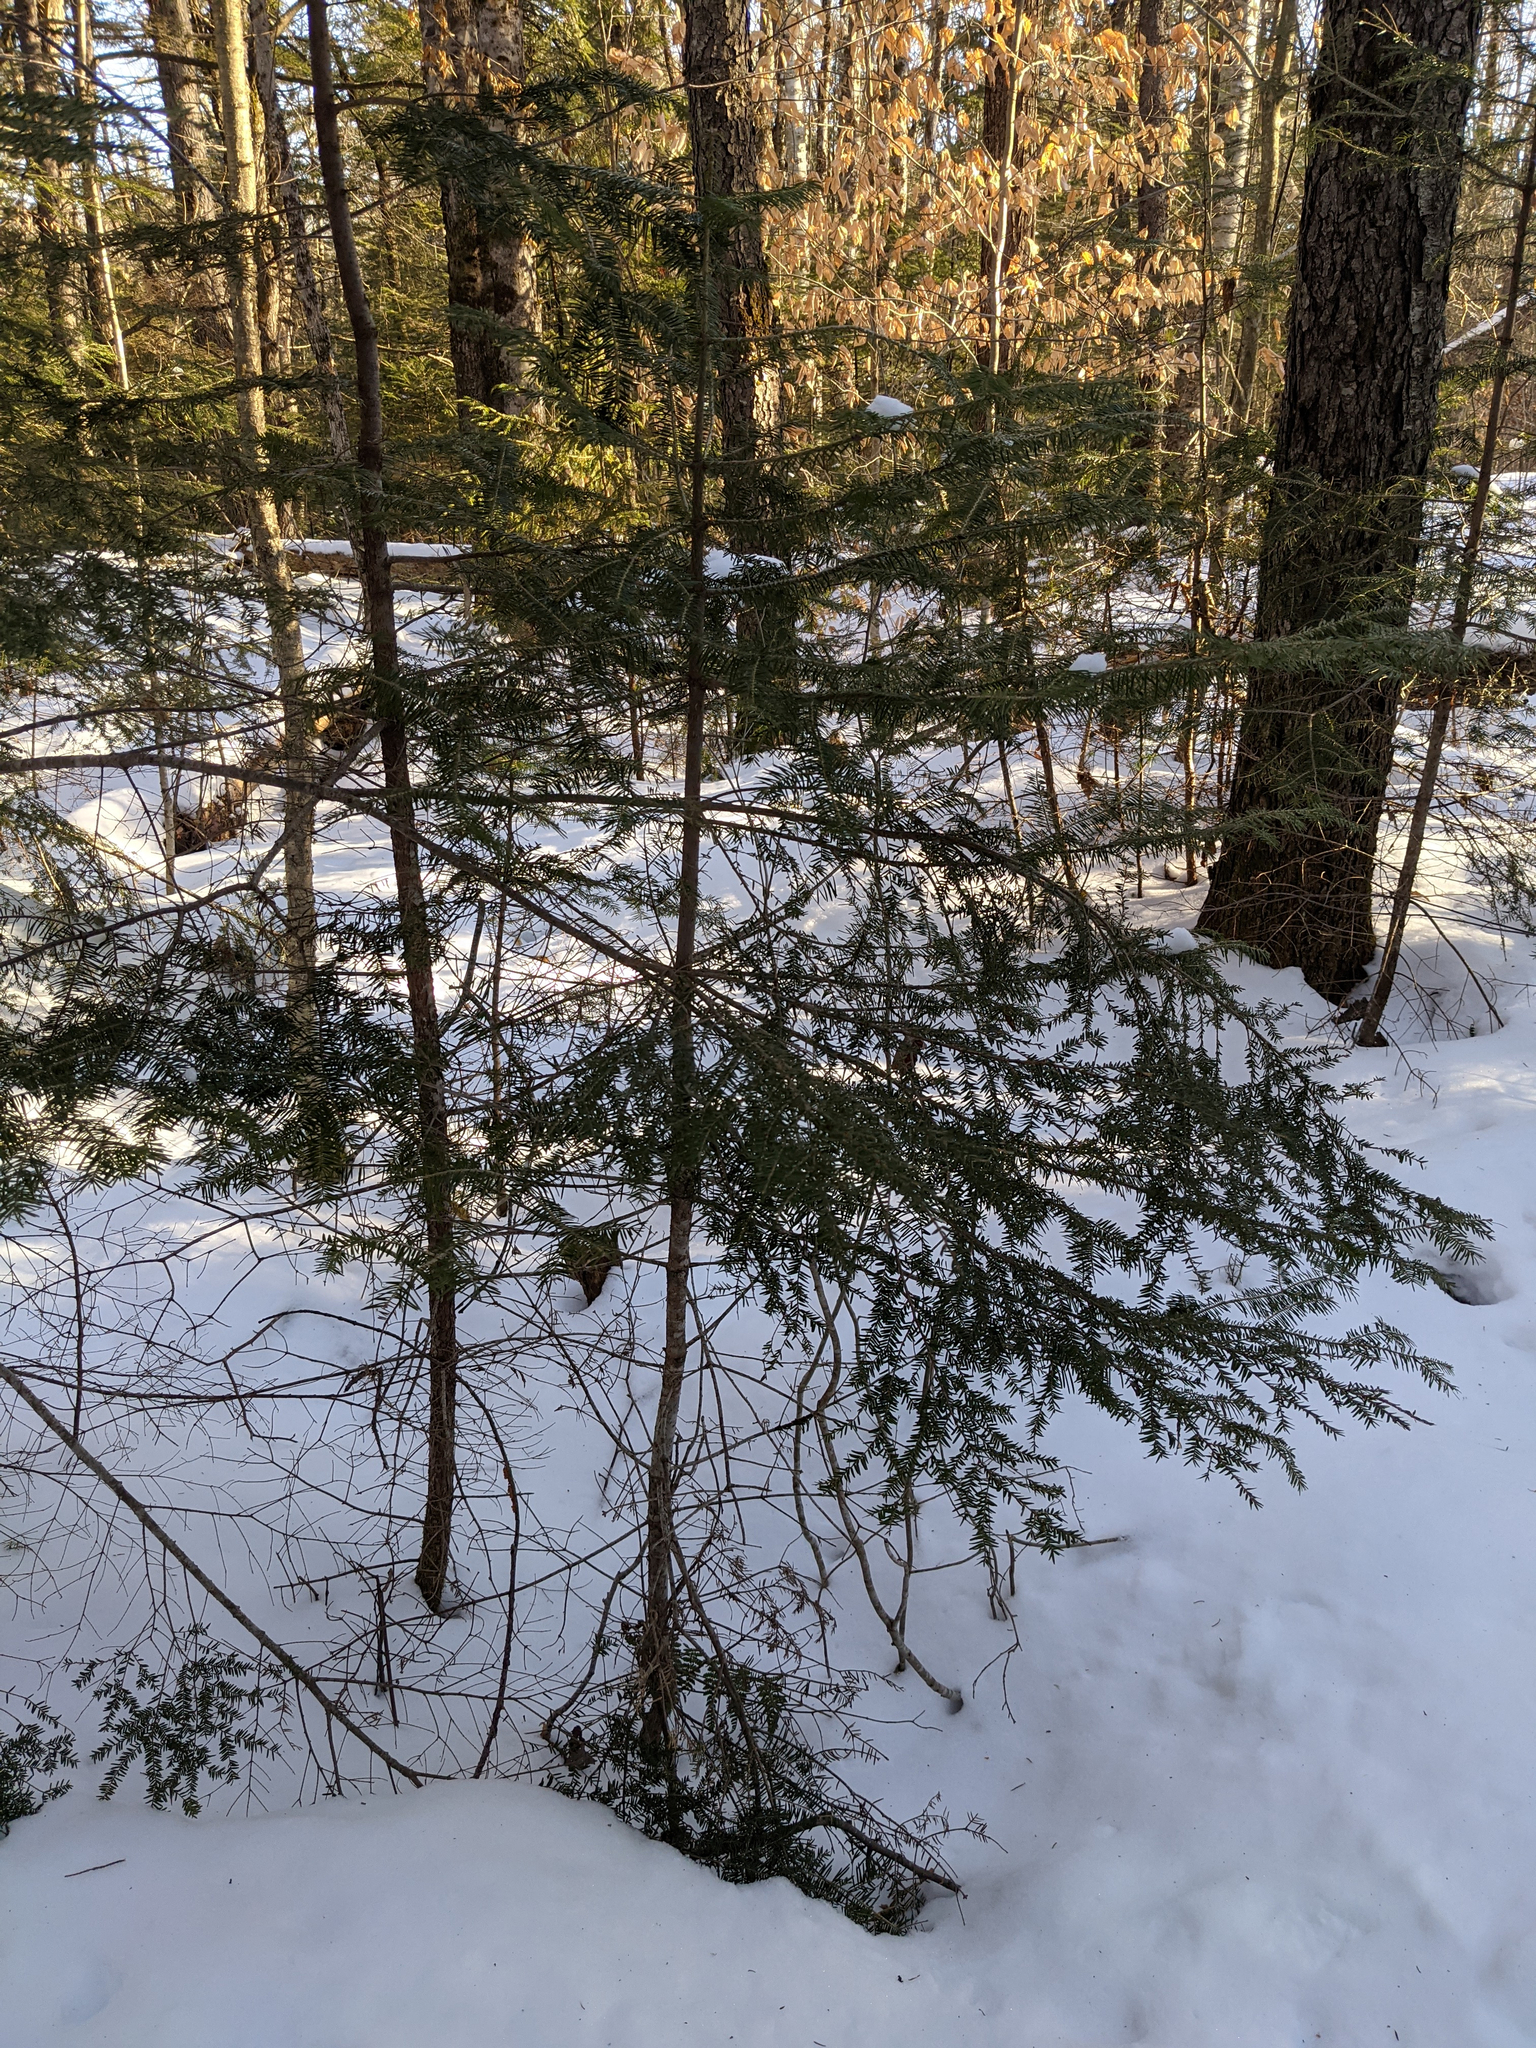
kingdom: Plantae
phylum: Tracheophyta
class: Pinopsida
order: Pinales
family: Pinaceae
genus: Tsuga
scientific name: Tsuga canadensis
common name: Eastern hemlock
